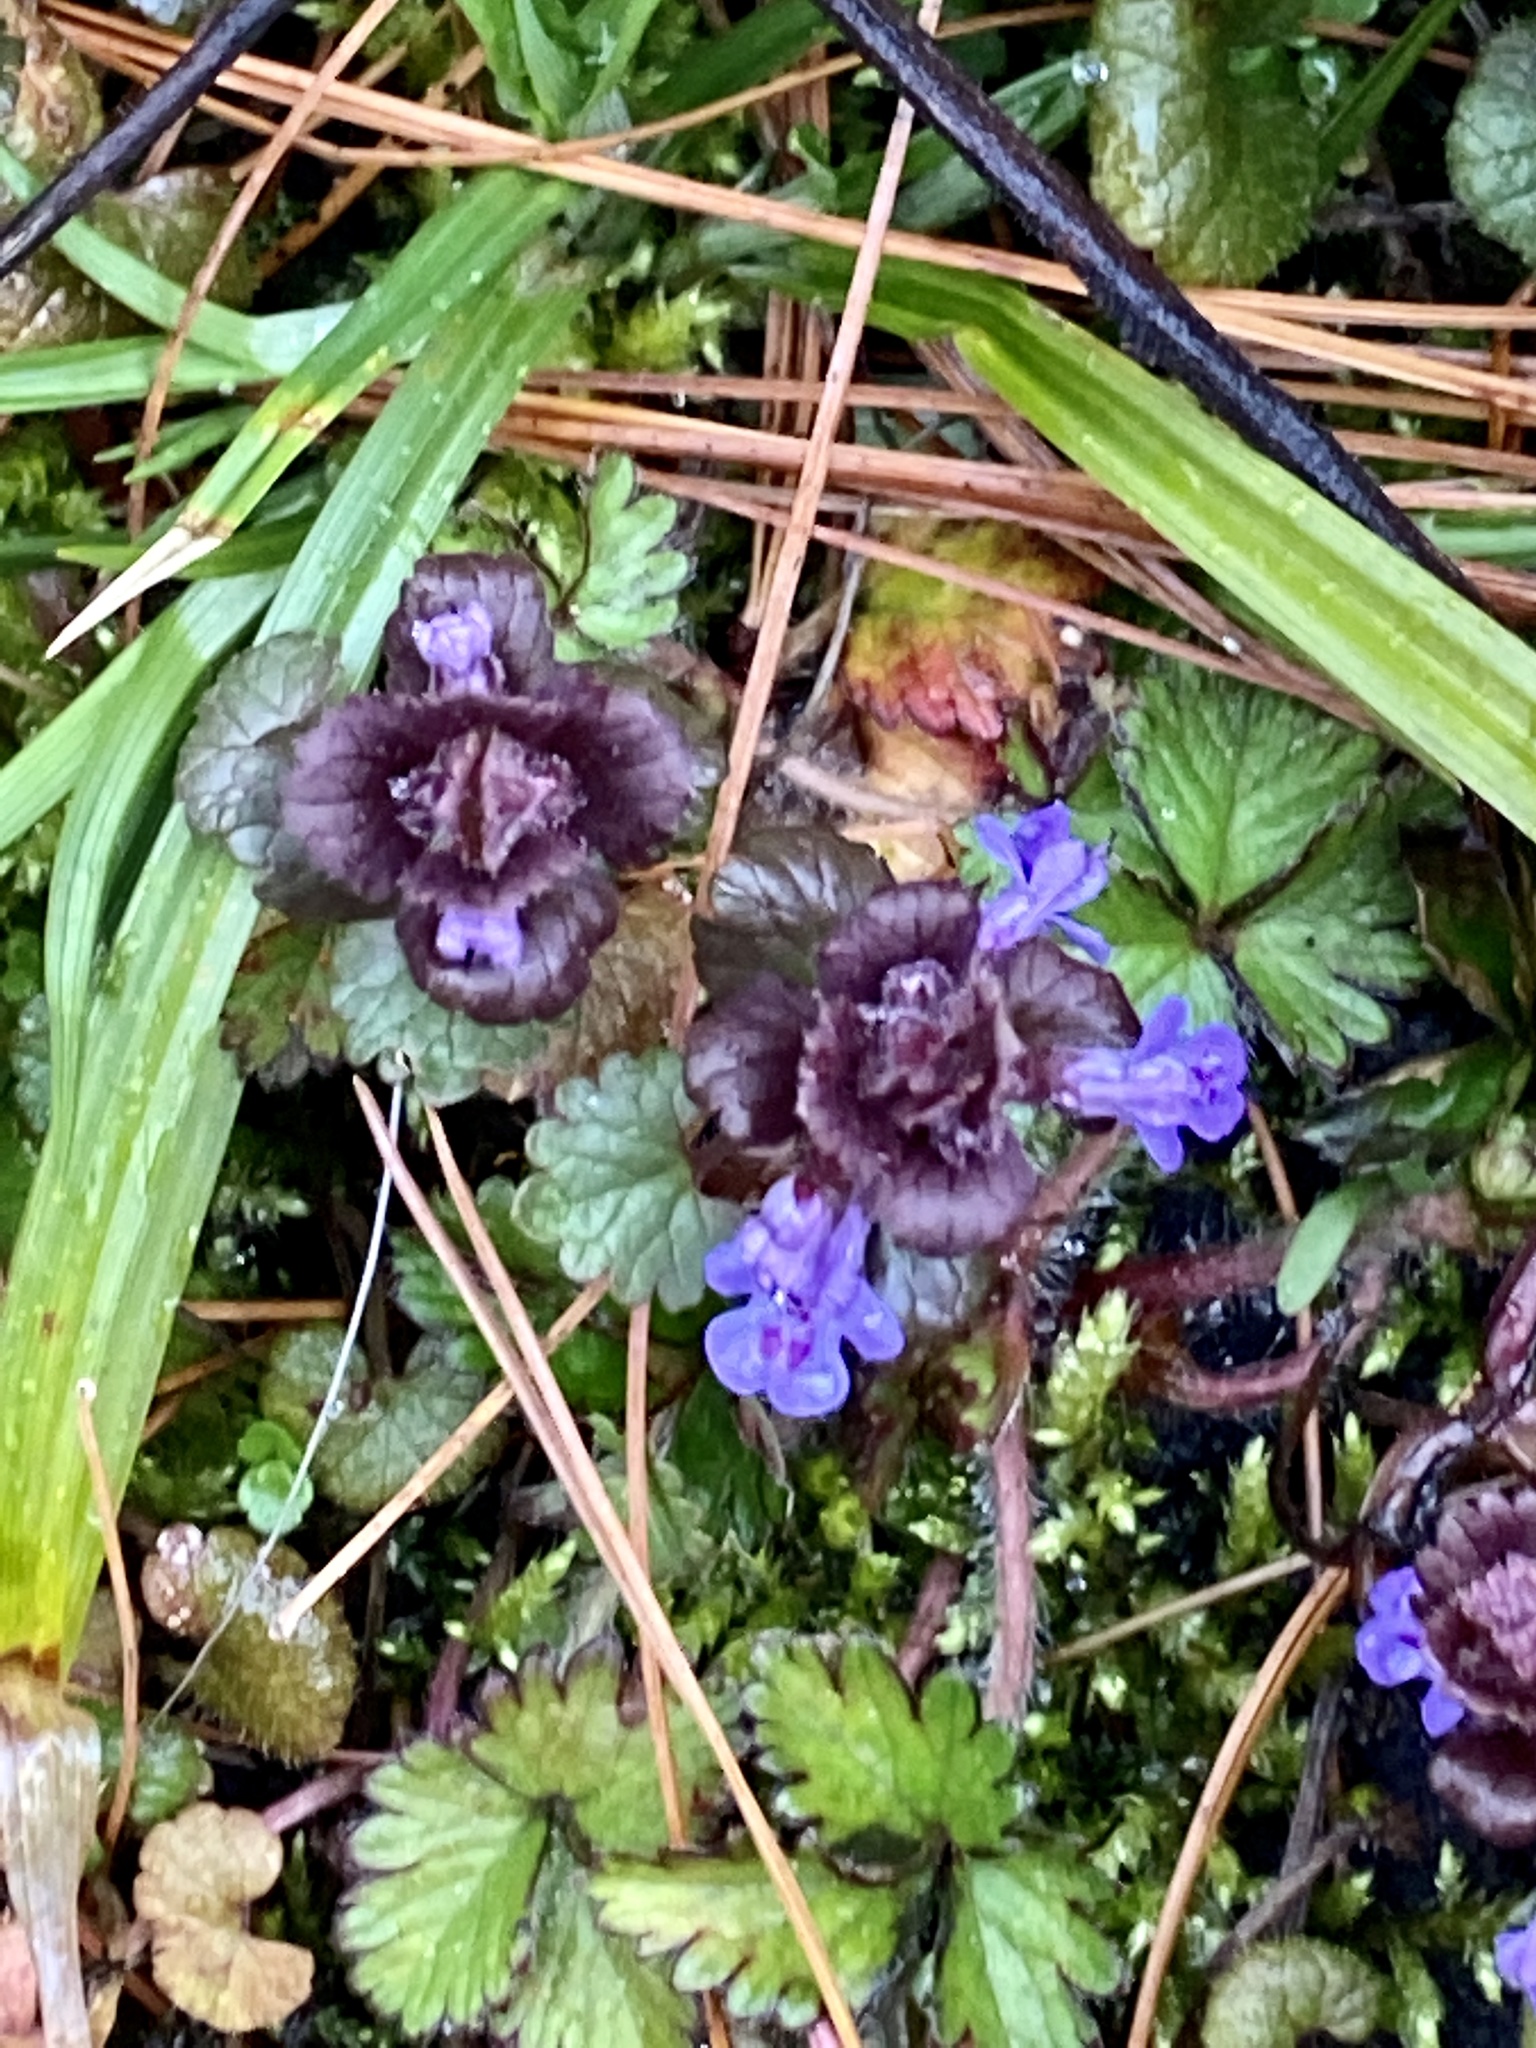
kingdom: Plantae
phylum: Tracheophyta
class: Magnoliopsida
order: Lamiales
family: Lamiaceae
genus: Glechoma
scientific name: Glechoma hederacea
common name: Ground ivy
